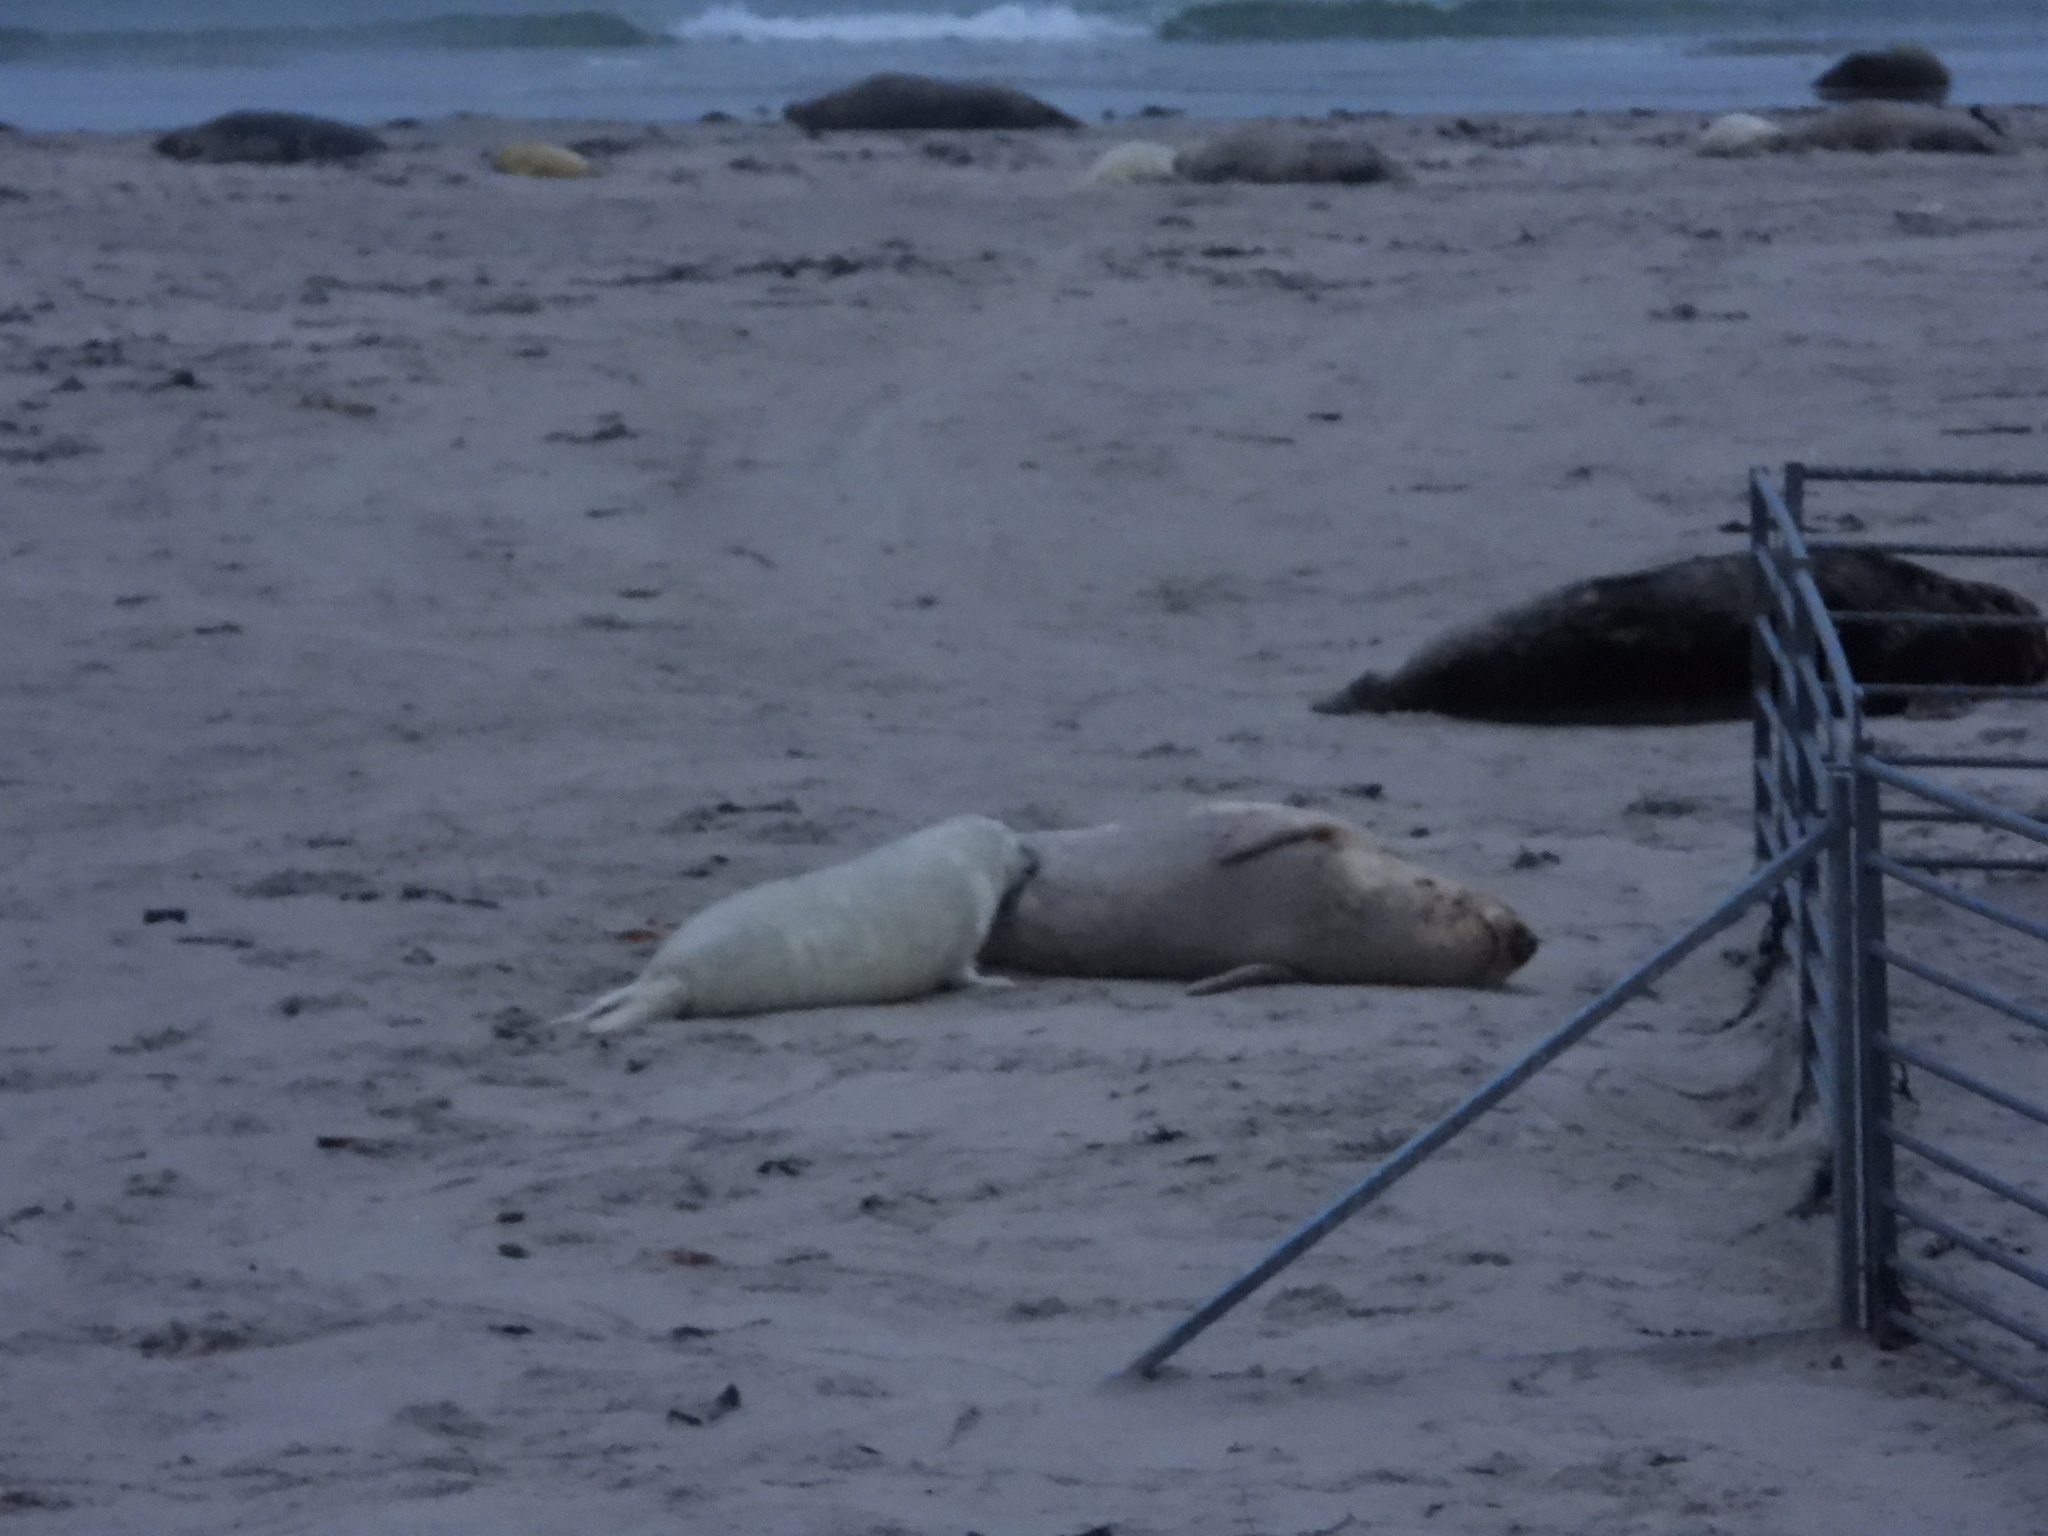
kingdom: Animalia
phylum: Chordata
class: Mammalia
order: Carnivora
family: Phocidae
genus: Halichoerus
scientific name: Halichoerus grypus
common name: Grey seal
